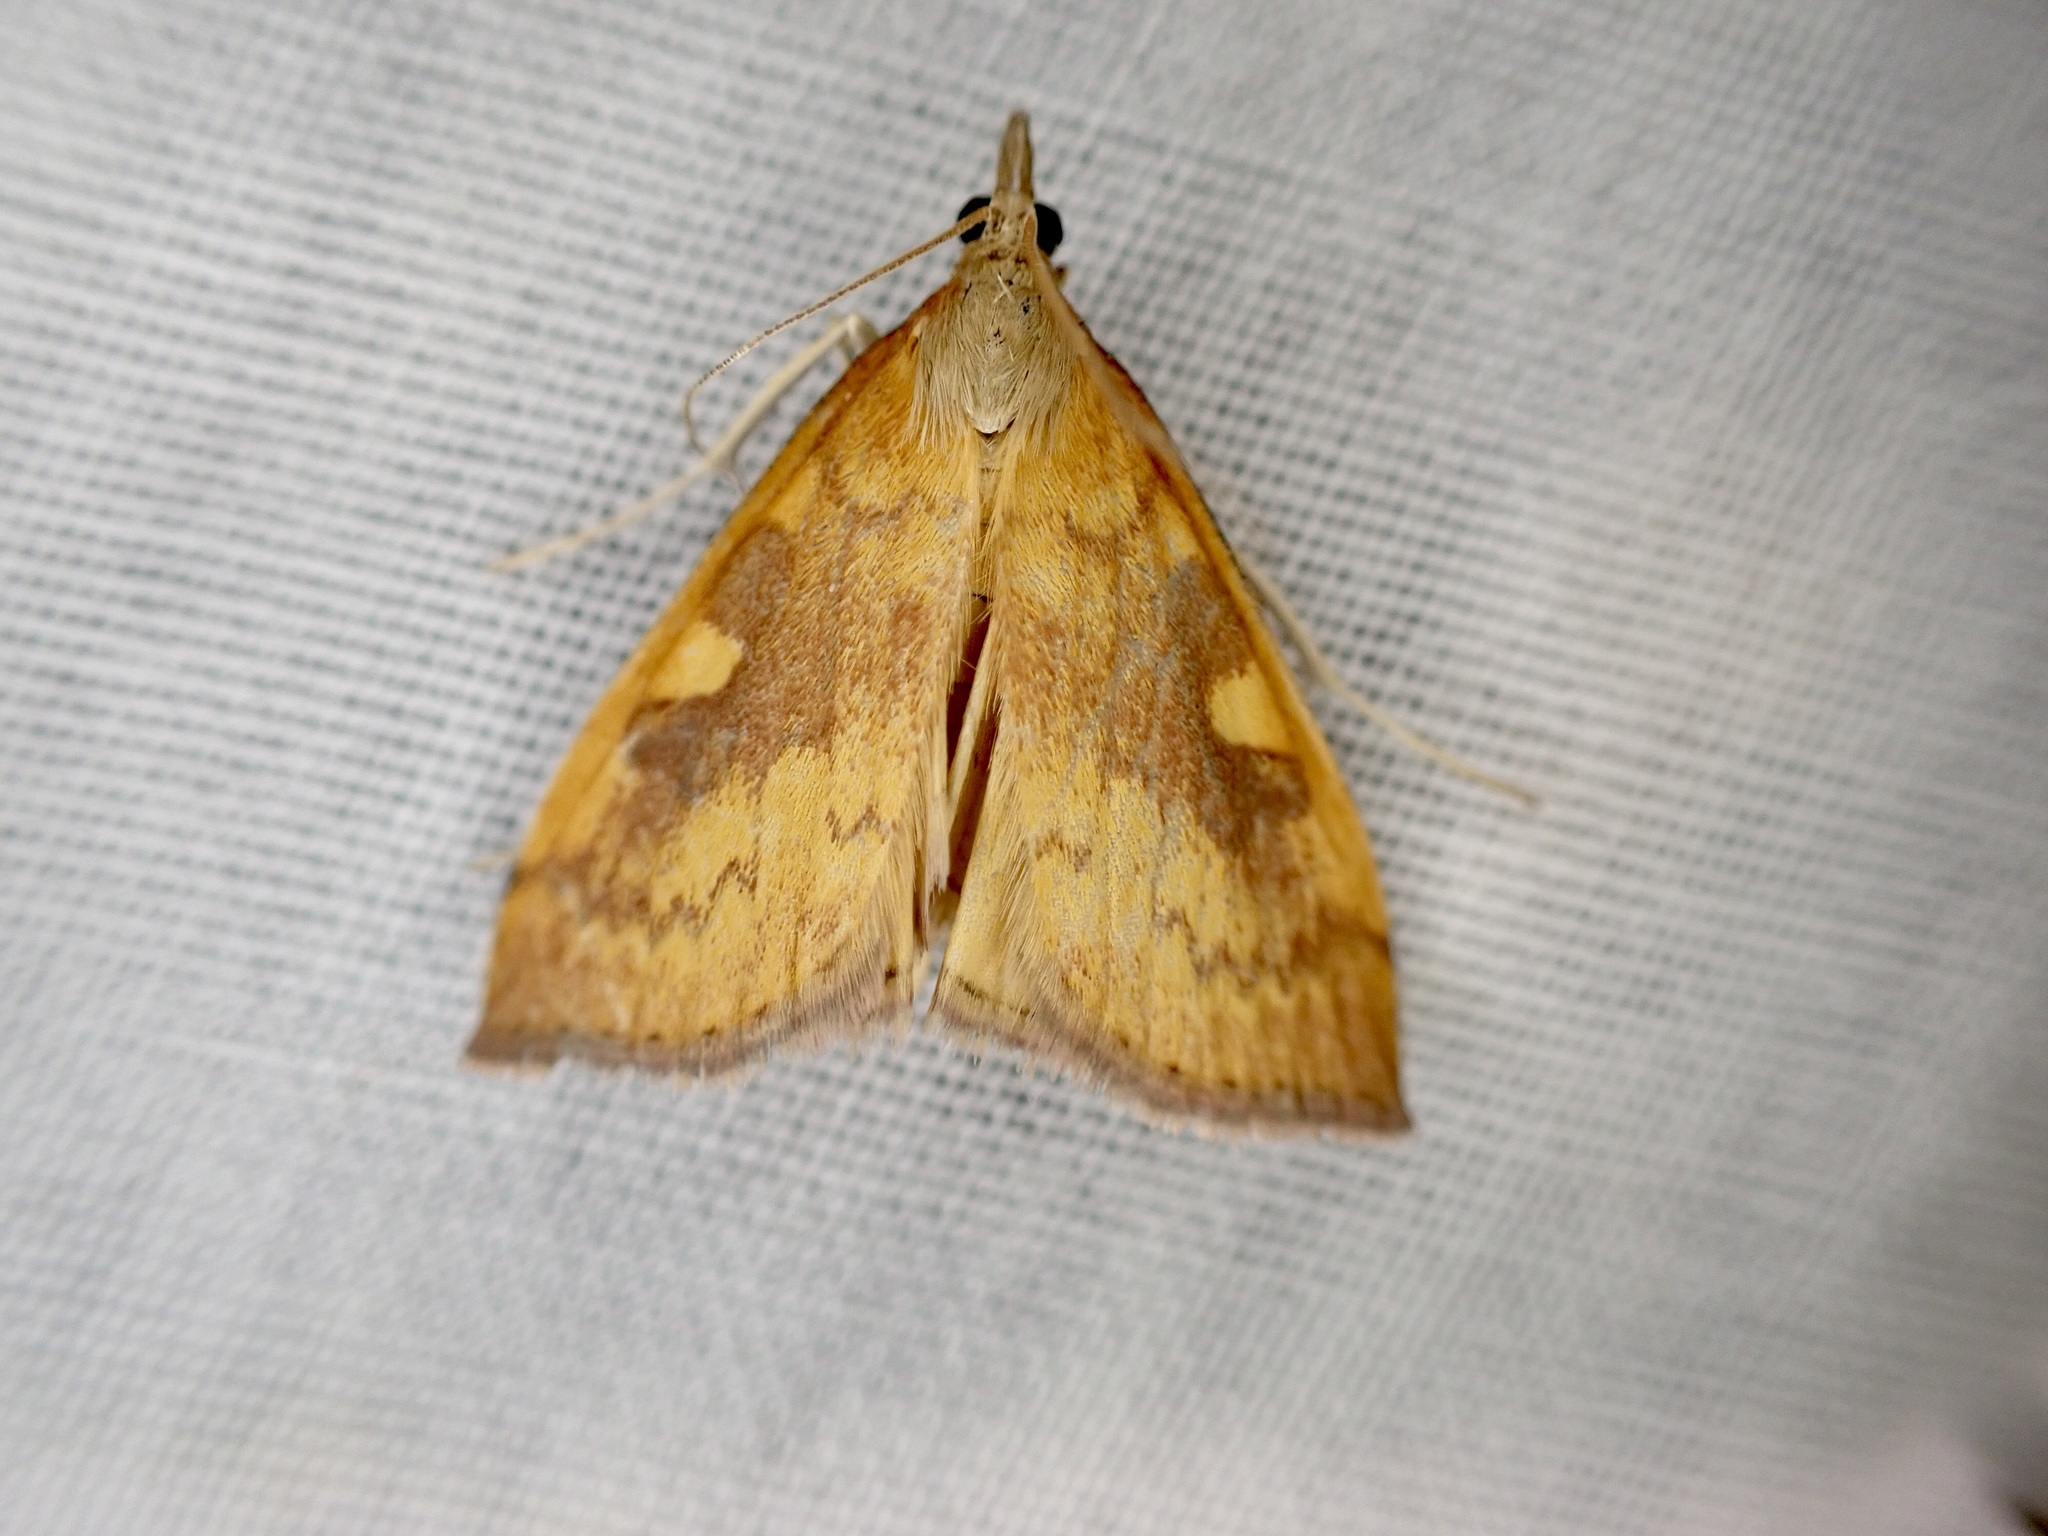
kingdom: Animalia
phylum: Arthropoda
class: Insecta
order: Lepidoptera
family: Crambidae
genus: Udea
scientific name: Udea Mnesictena flavidalis
